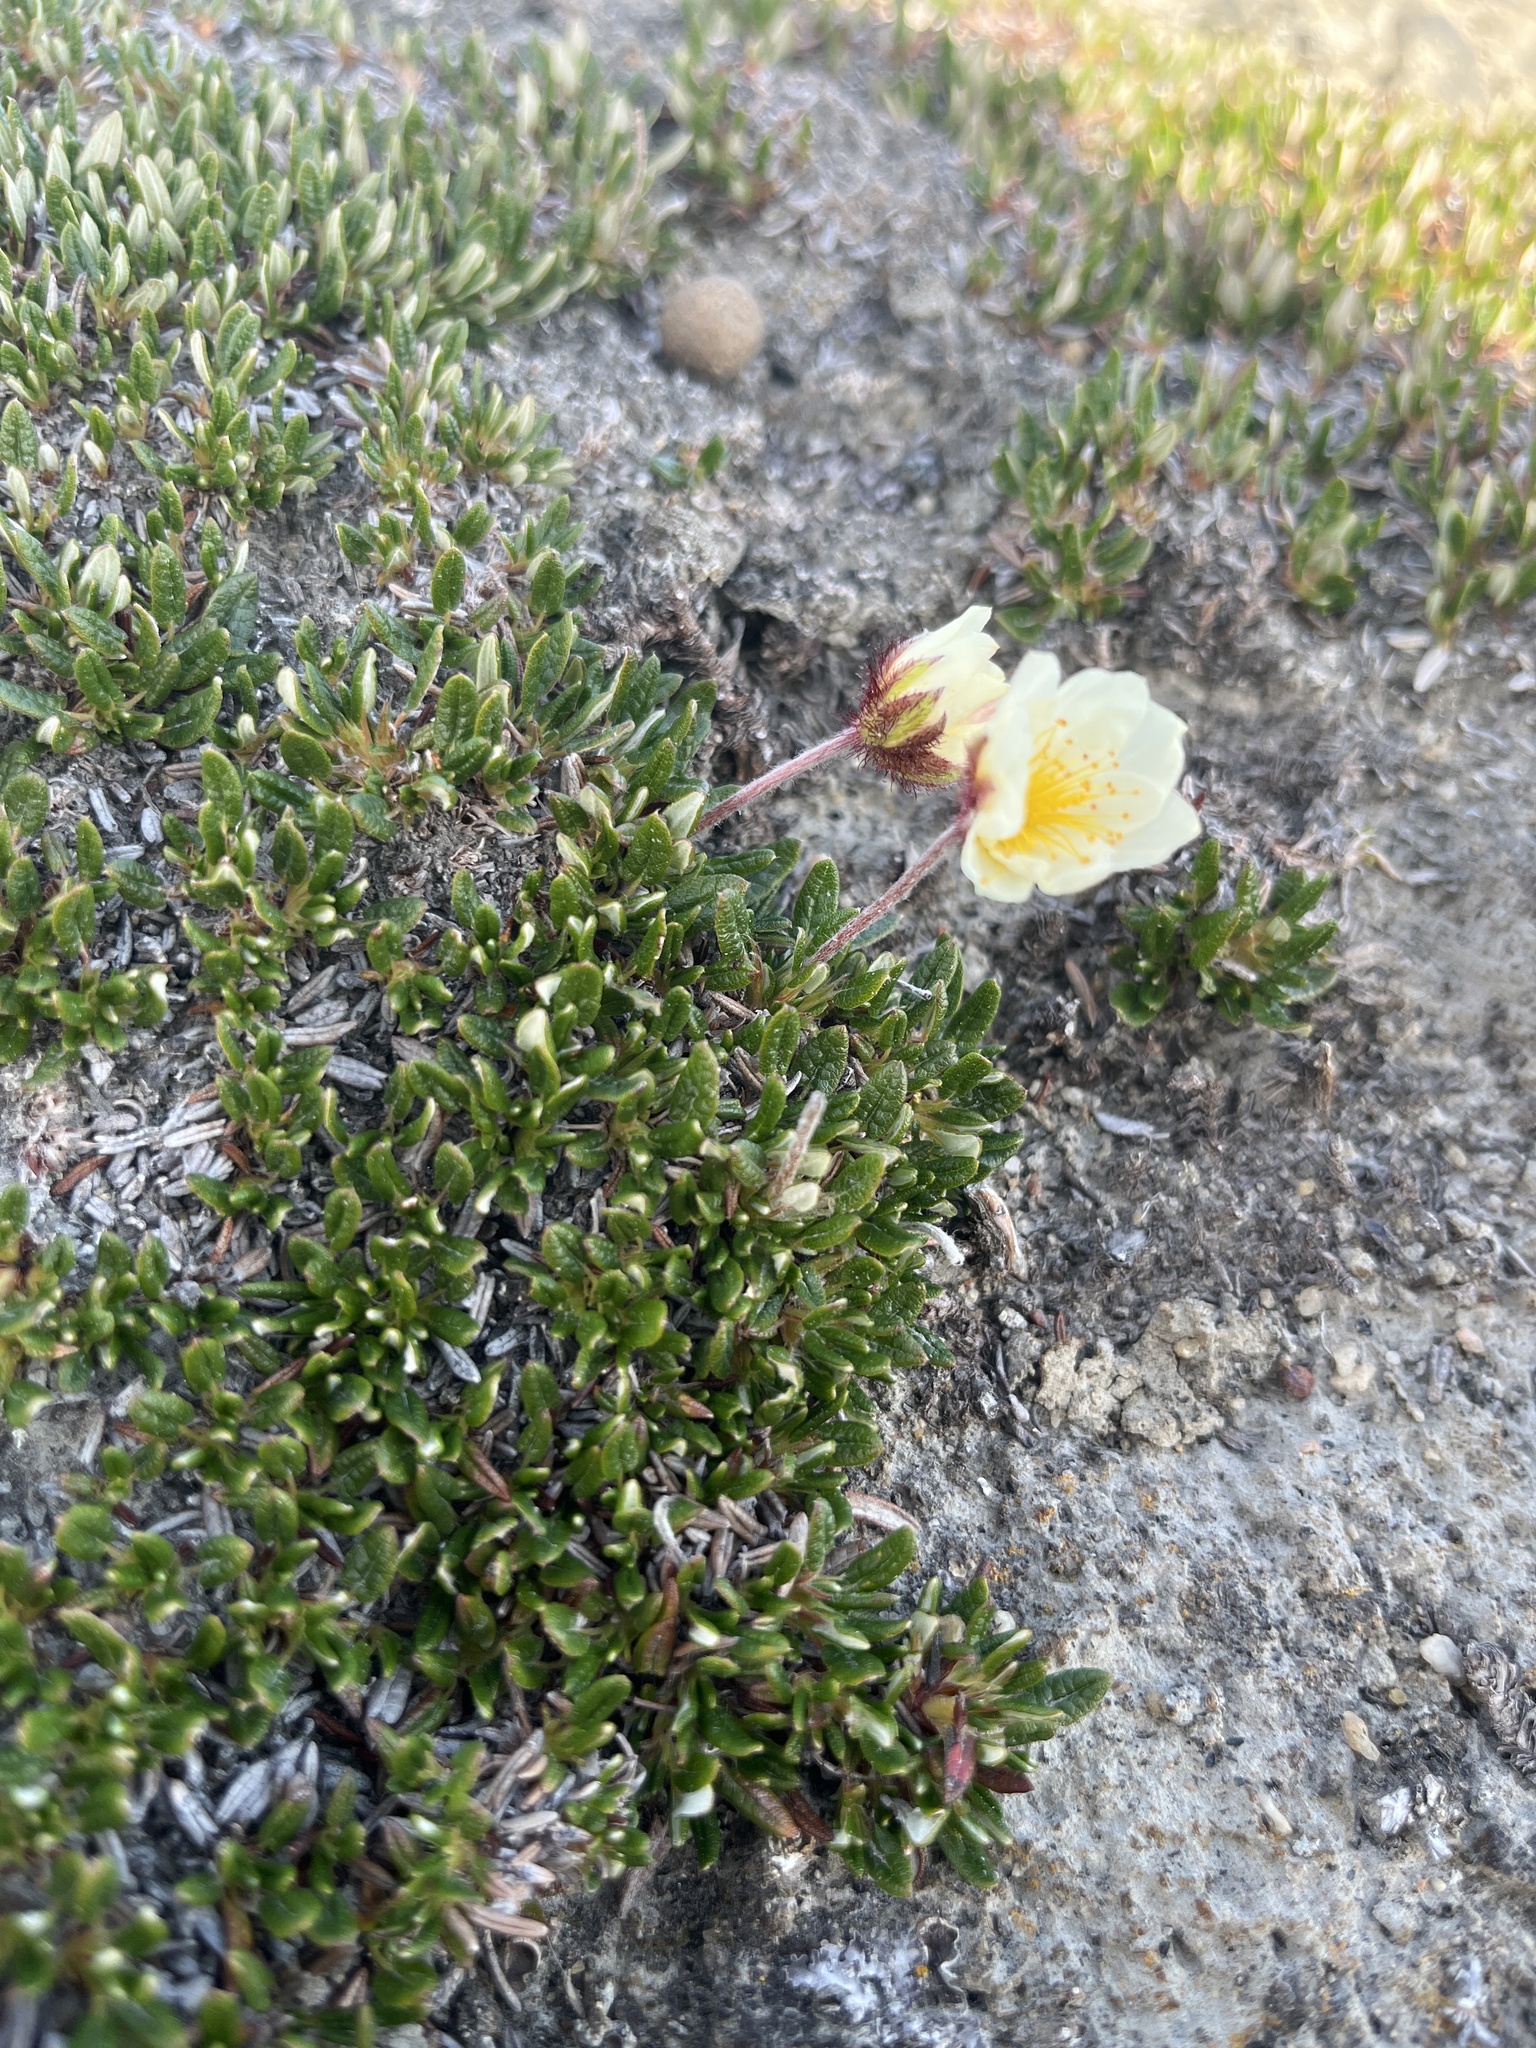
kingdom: Plantae
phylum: Tracheophyta
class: Magnoliopsida
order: Rosales
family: Rosaceae
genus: Dryas
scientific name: Dryas integrifolia
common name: Entire-leaved mountain avens
